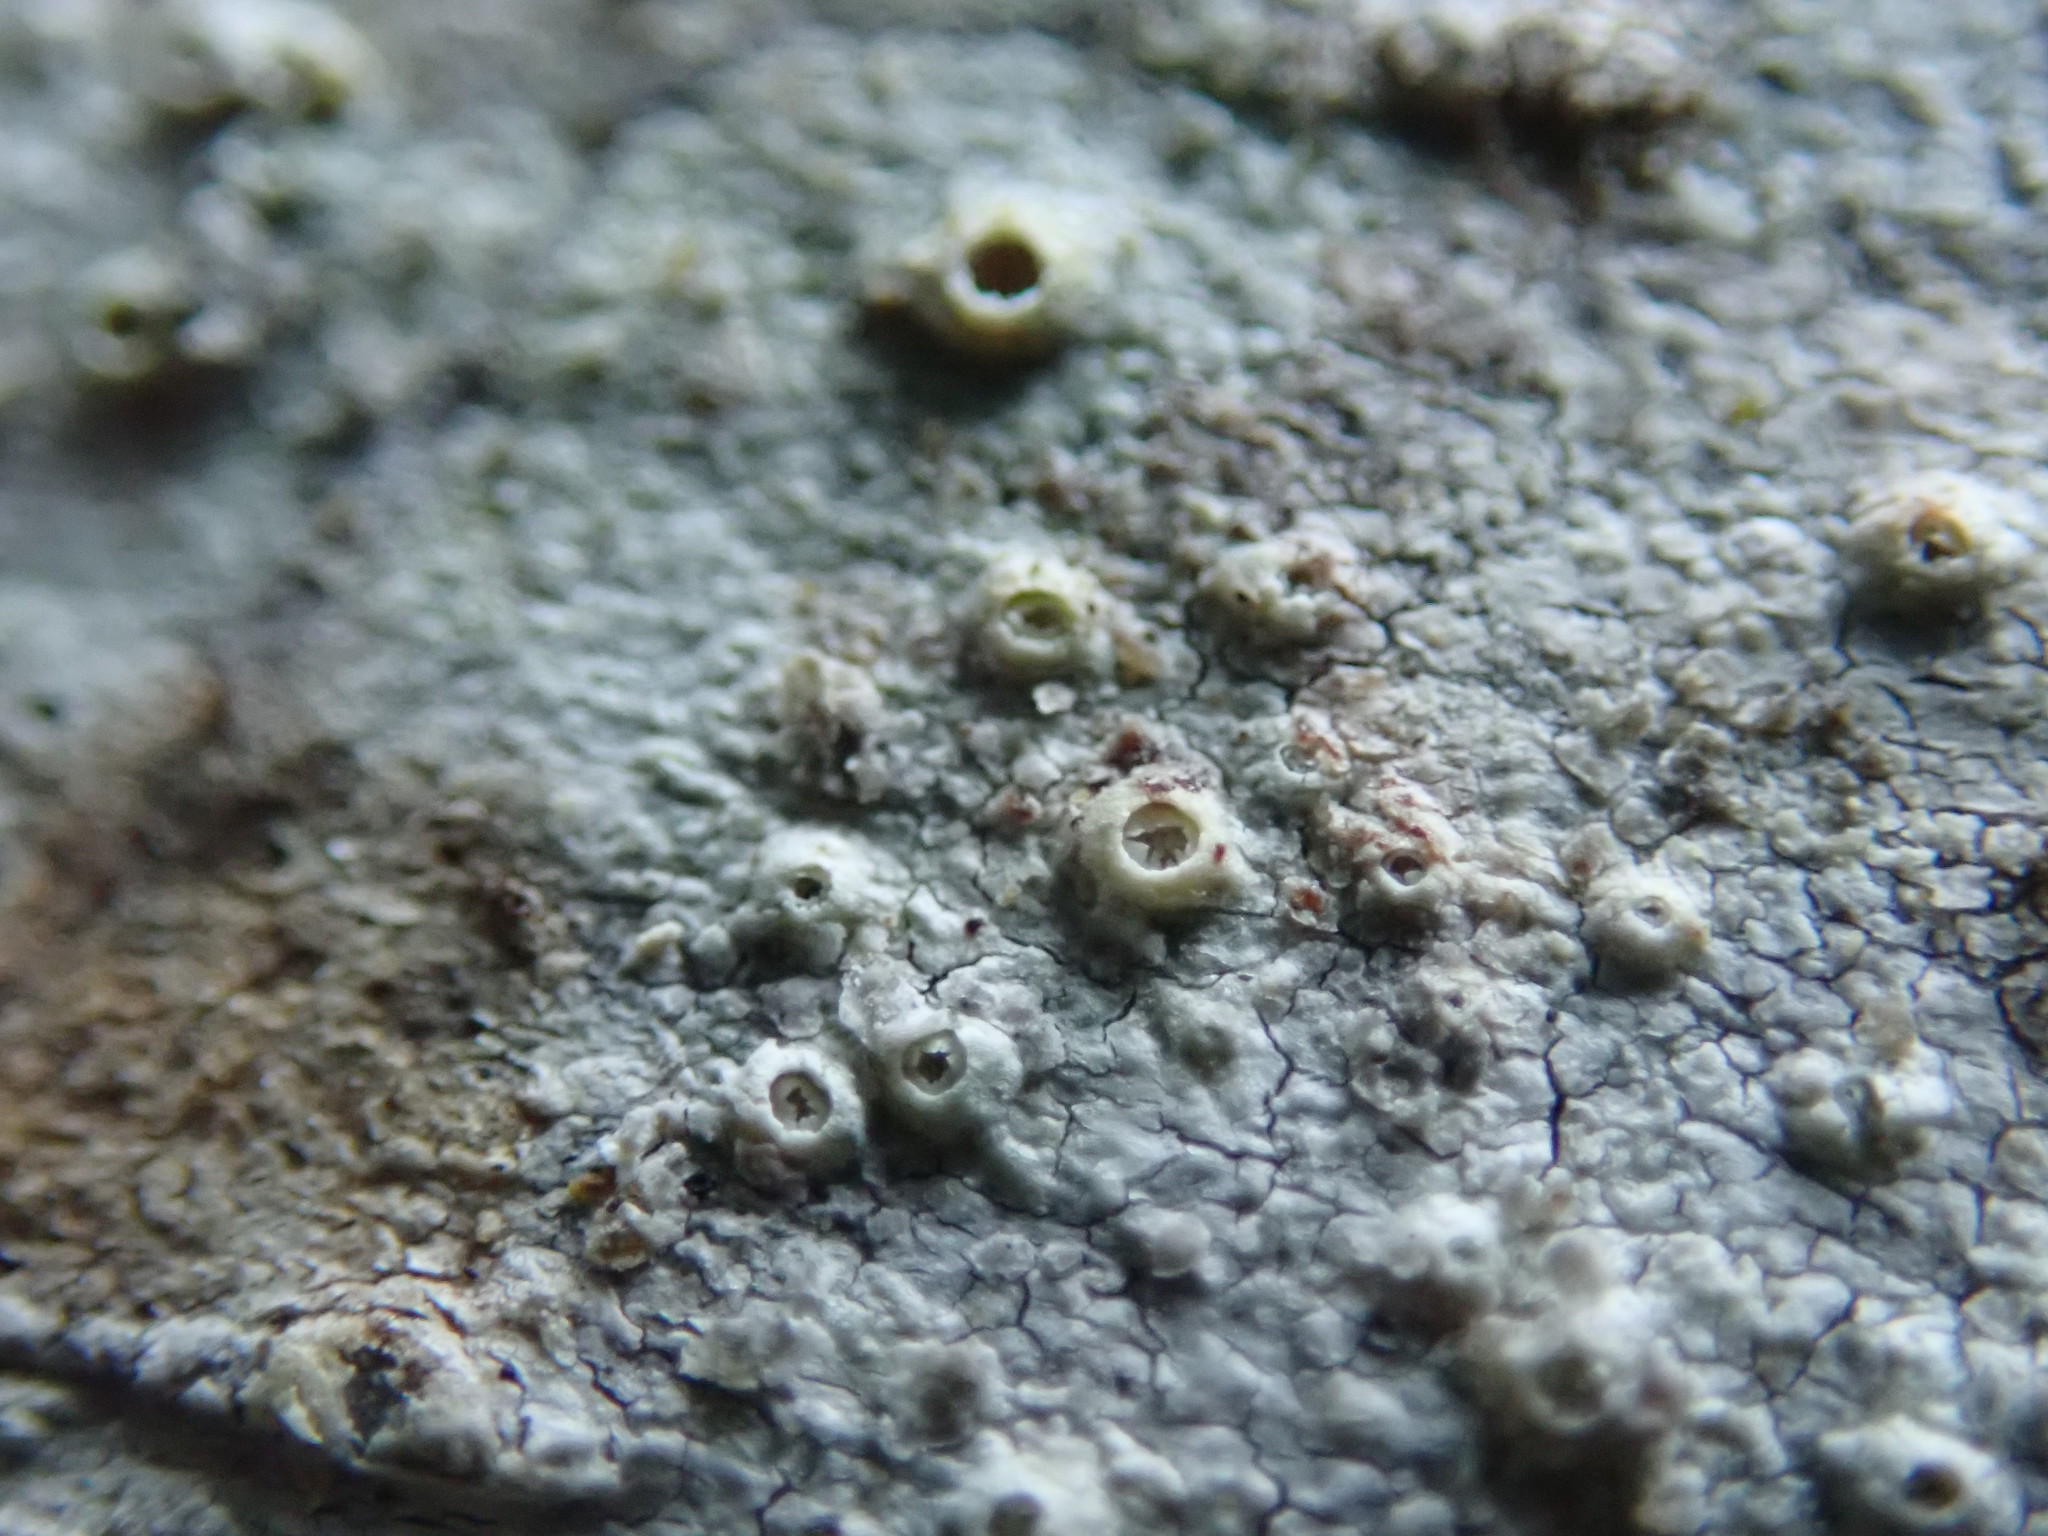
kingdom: Fungi
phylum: Ascomycota
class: Lecanoromycetes
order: Ostropales
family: Graphidaceae
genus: Thelotrema
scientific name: Thelotrema lepadinum
